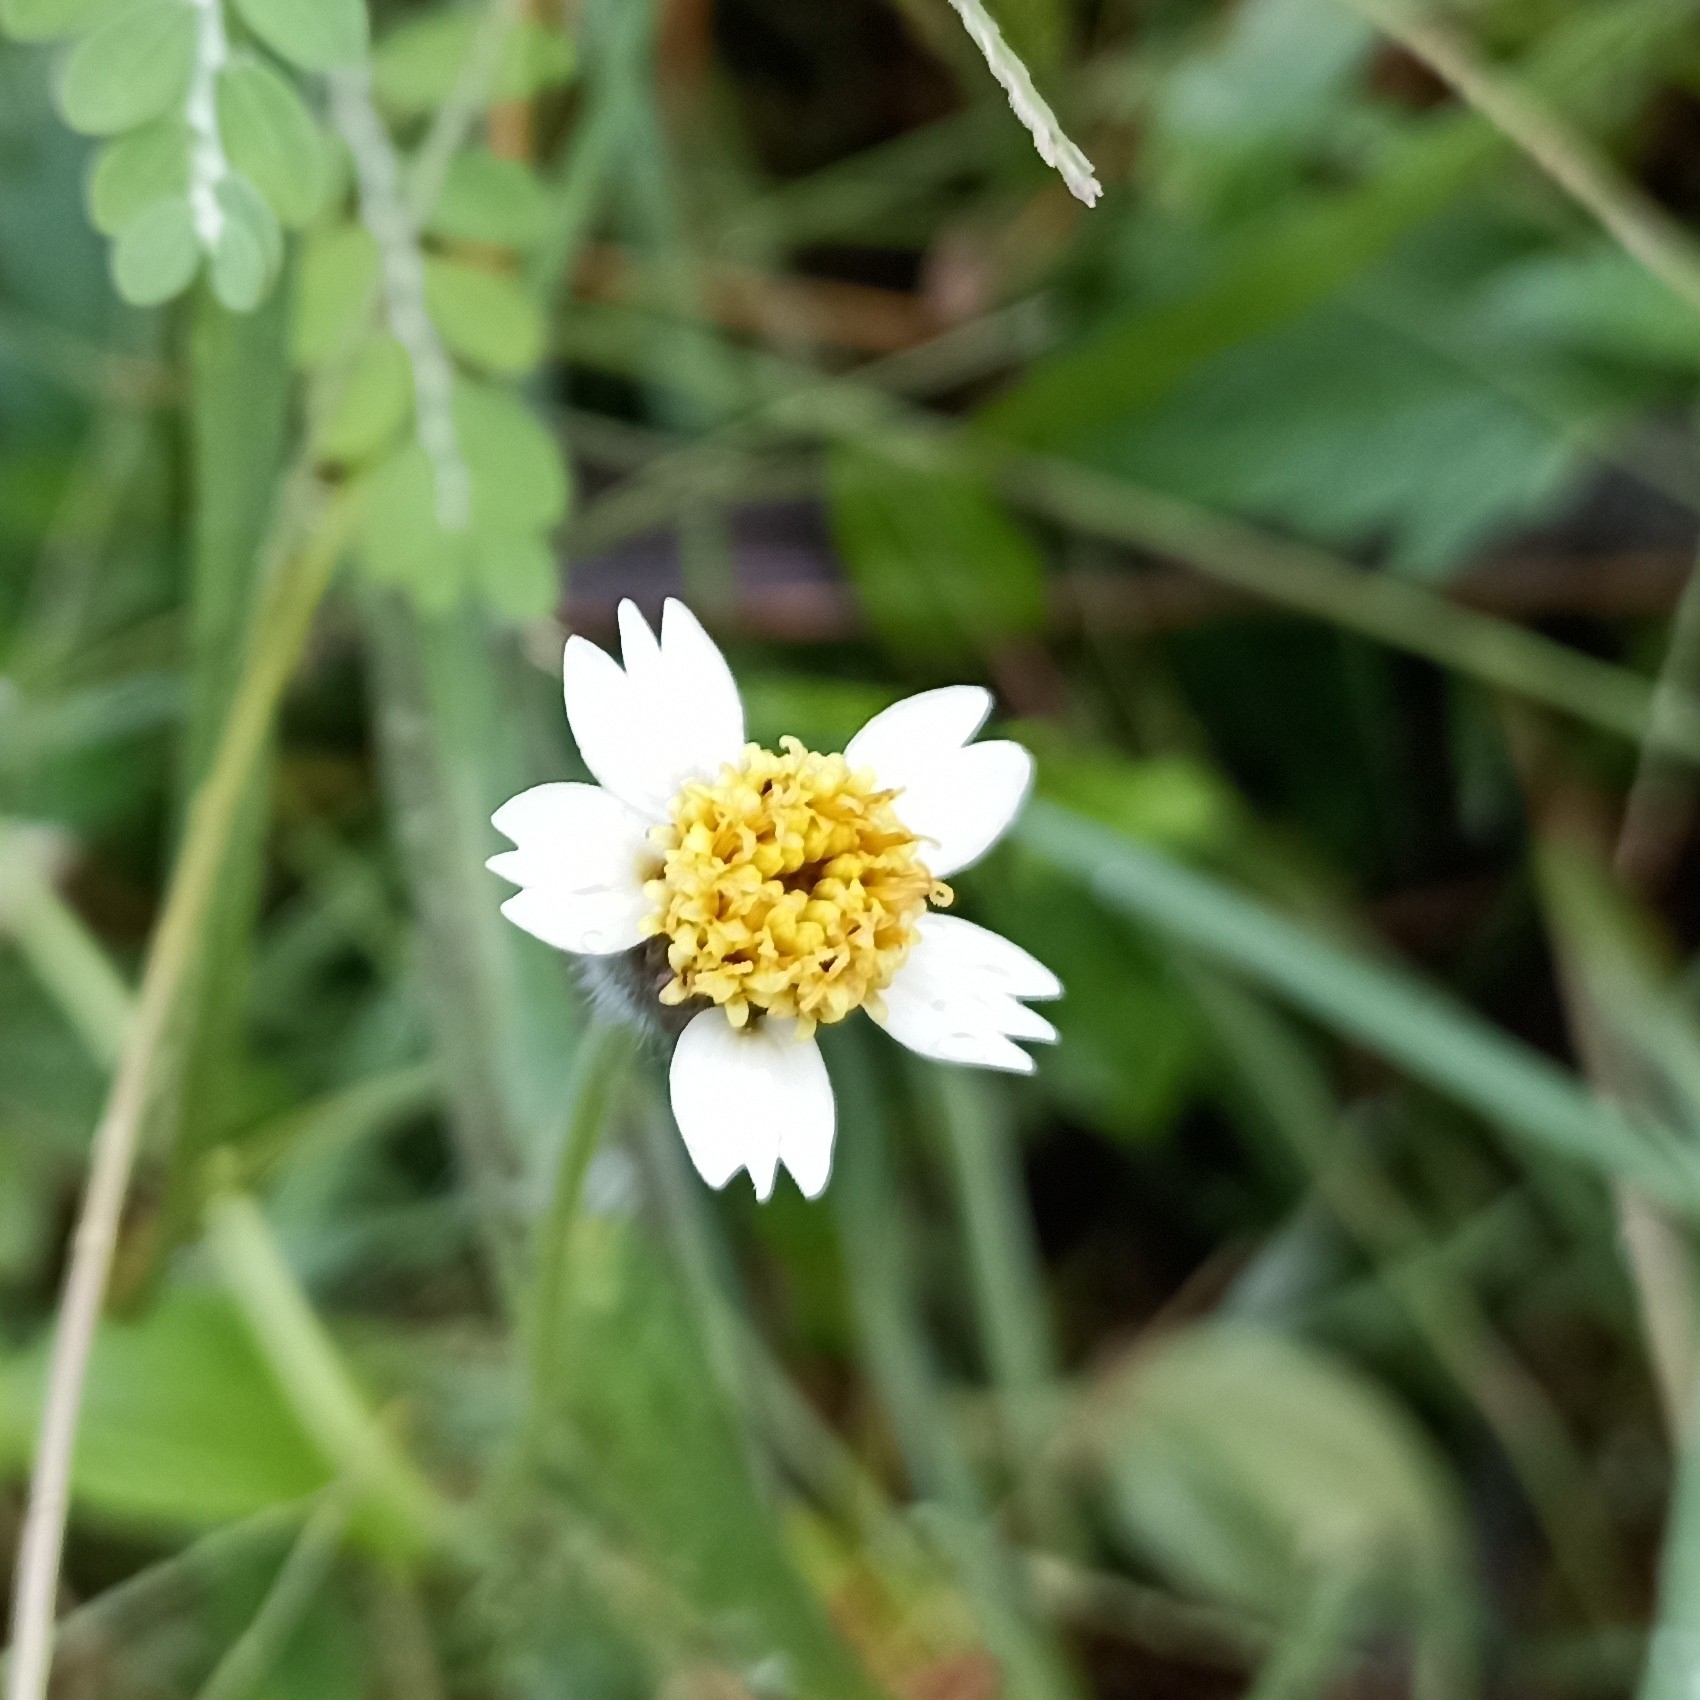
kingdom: Plantae
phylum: Tracheophyta
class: Magnoliopsida
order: Asterales
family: Asteraceae
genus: Tridax
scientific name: Tridax procumbens
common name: Coatbuttons
